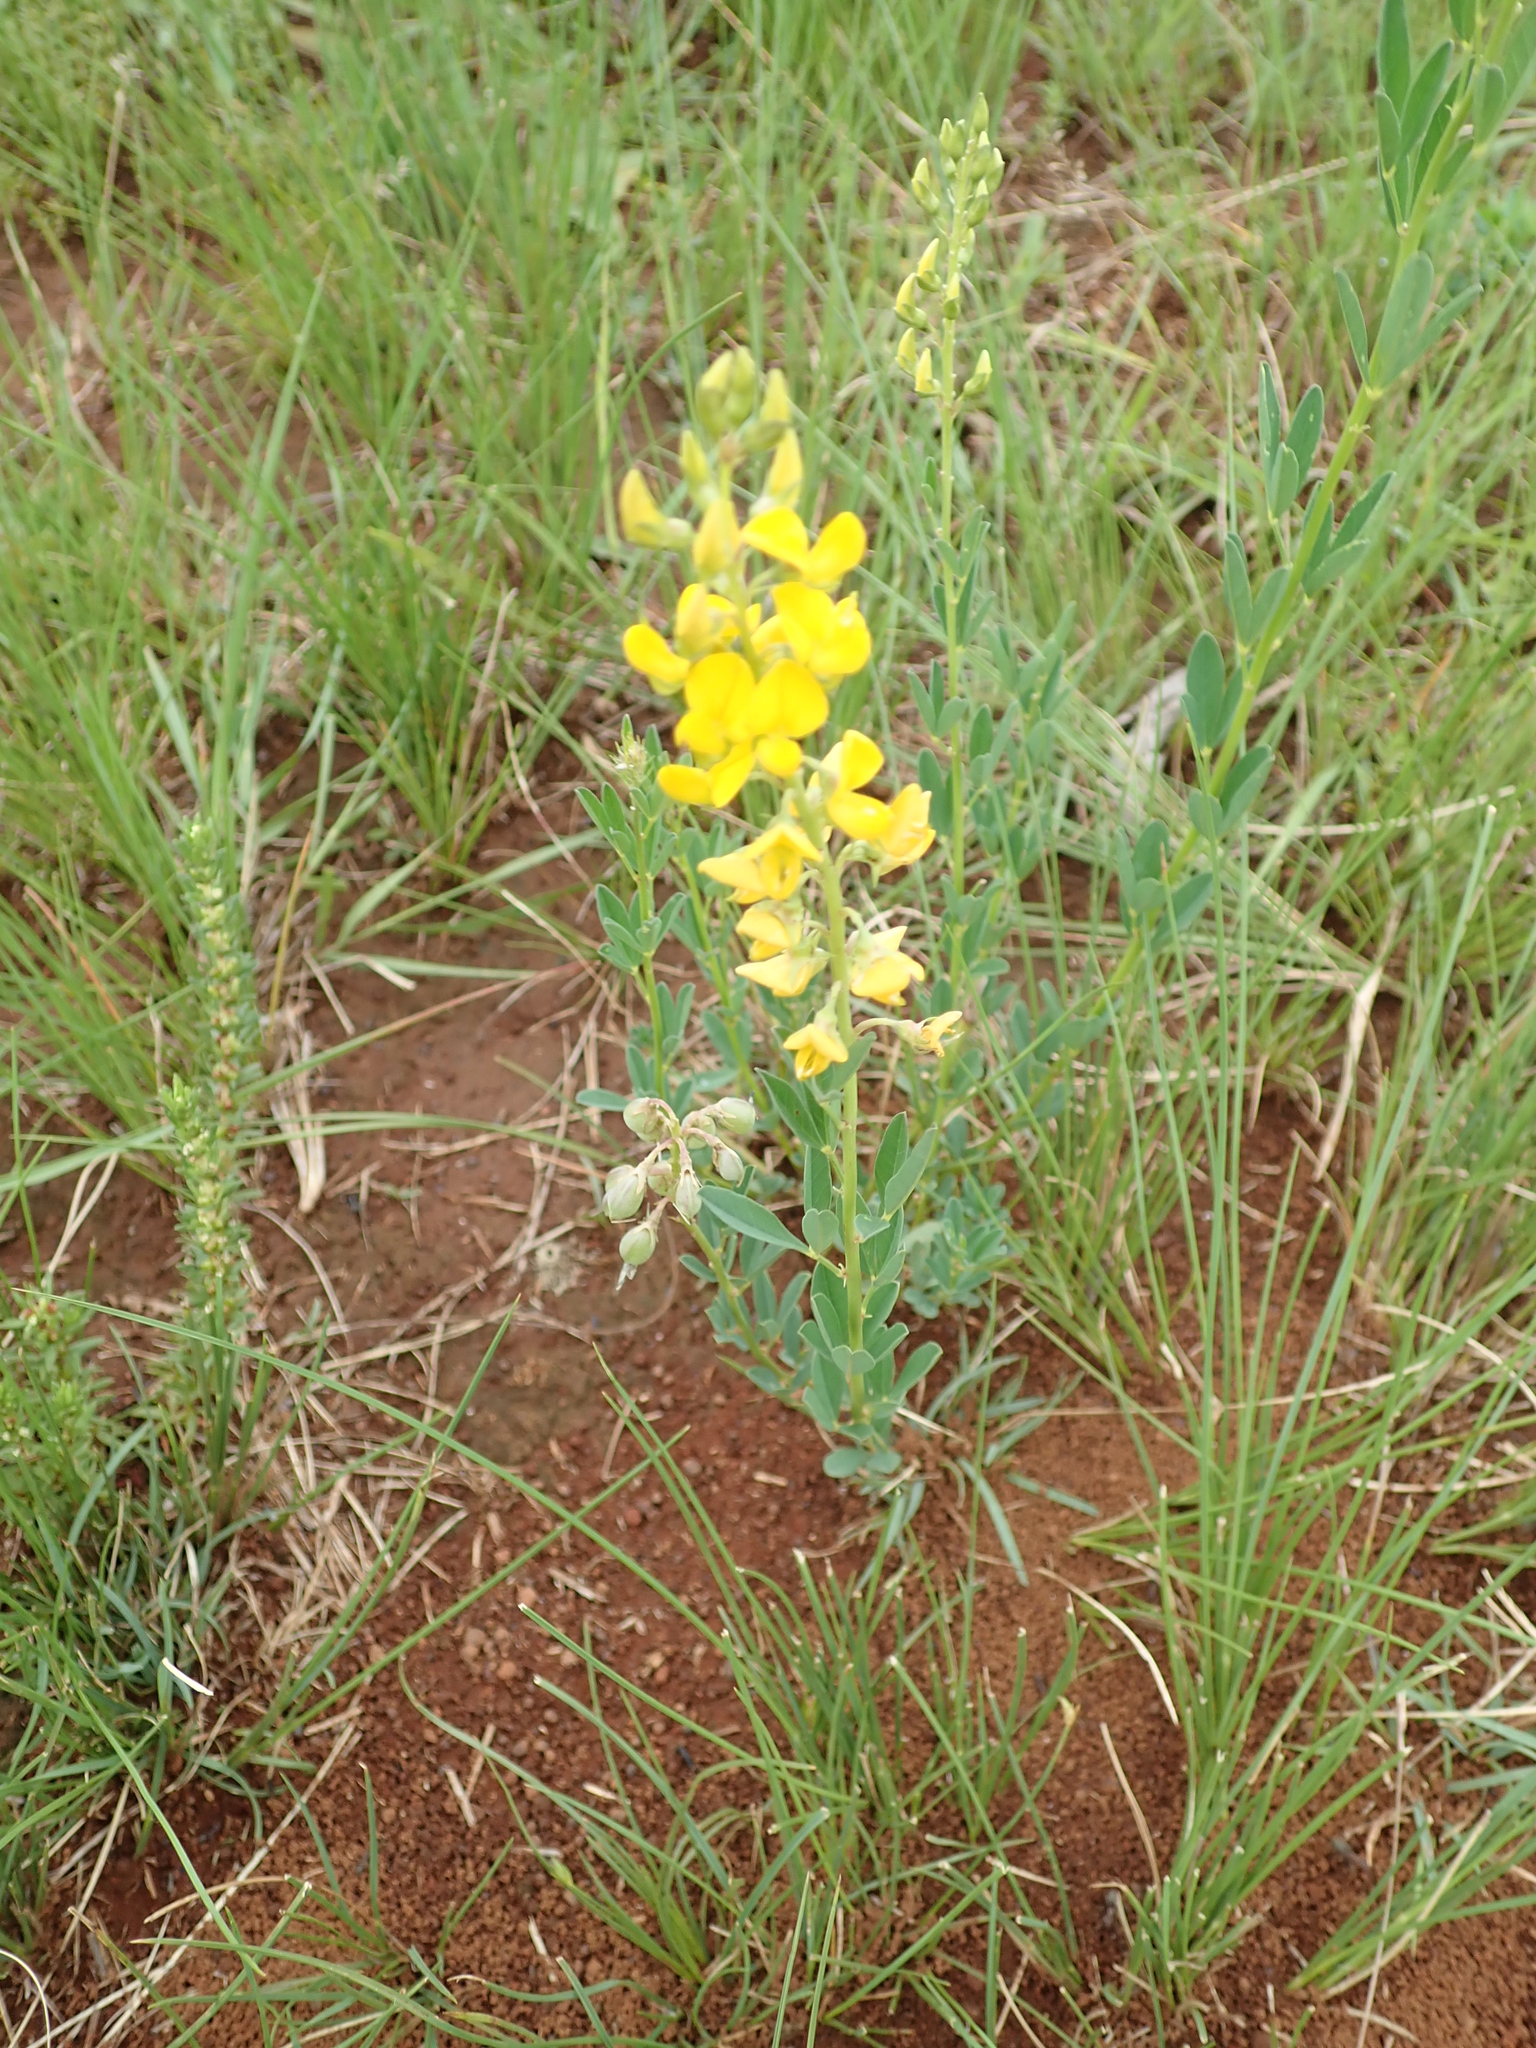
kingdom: Plantae
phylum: Tracheophyta
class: Magnoliopsida
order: Fabales
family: Fabaceae
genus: Crotalaria
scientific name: Crotalaria globifera
